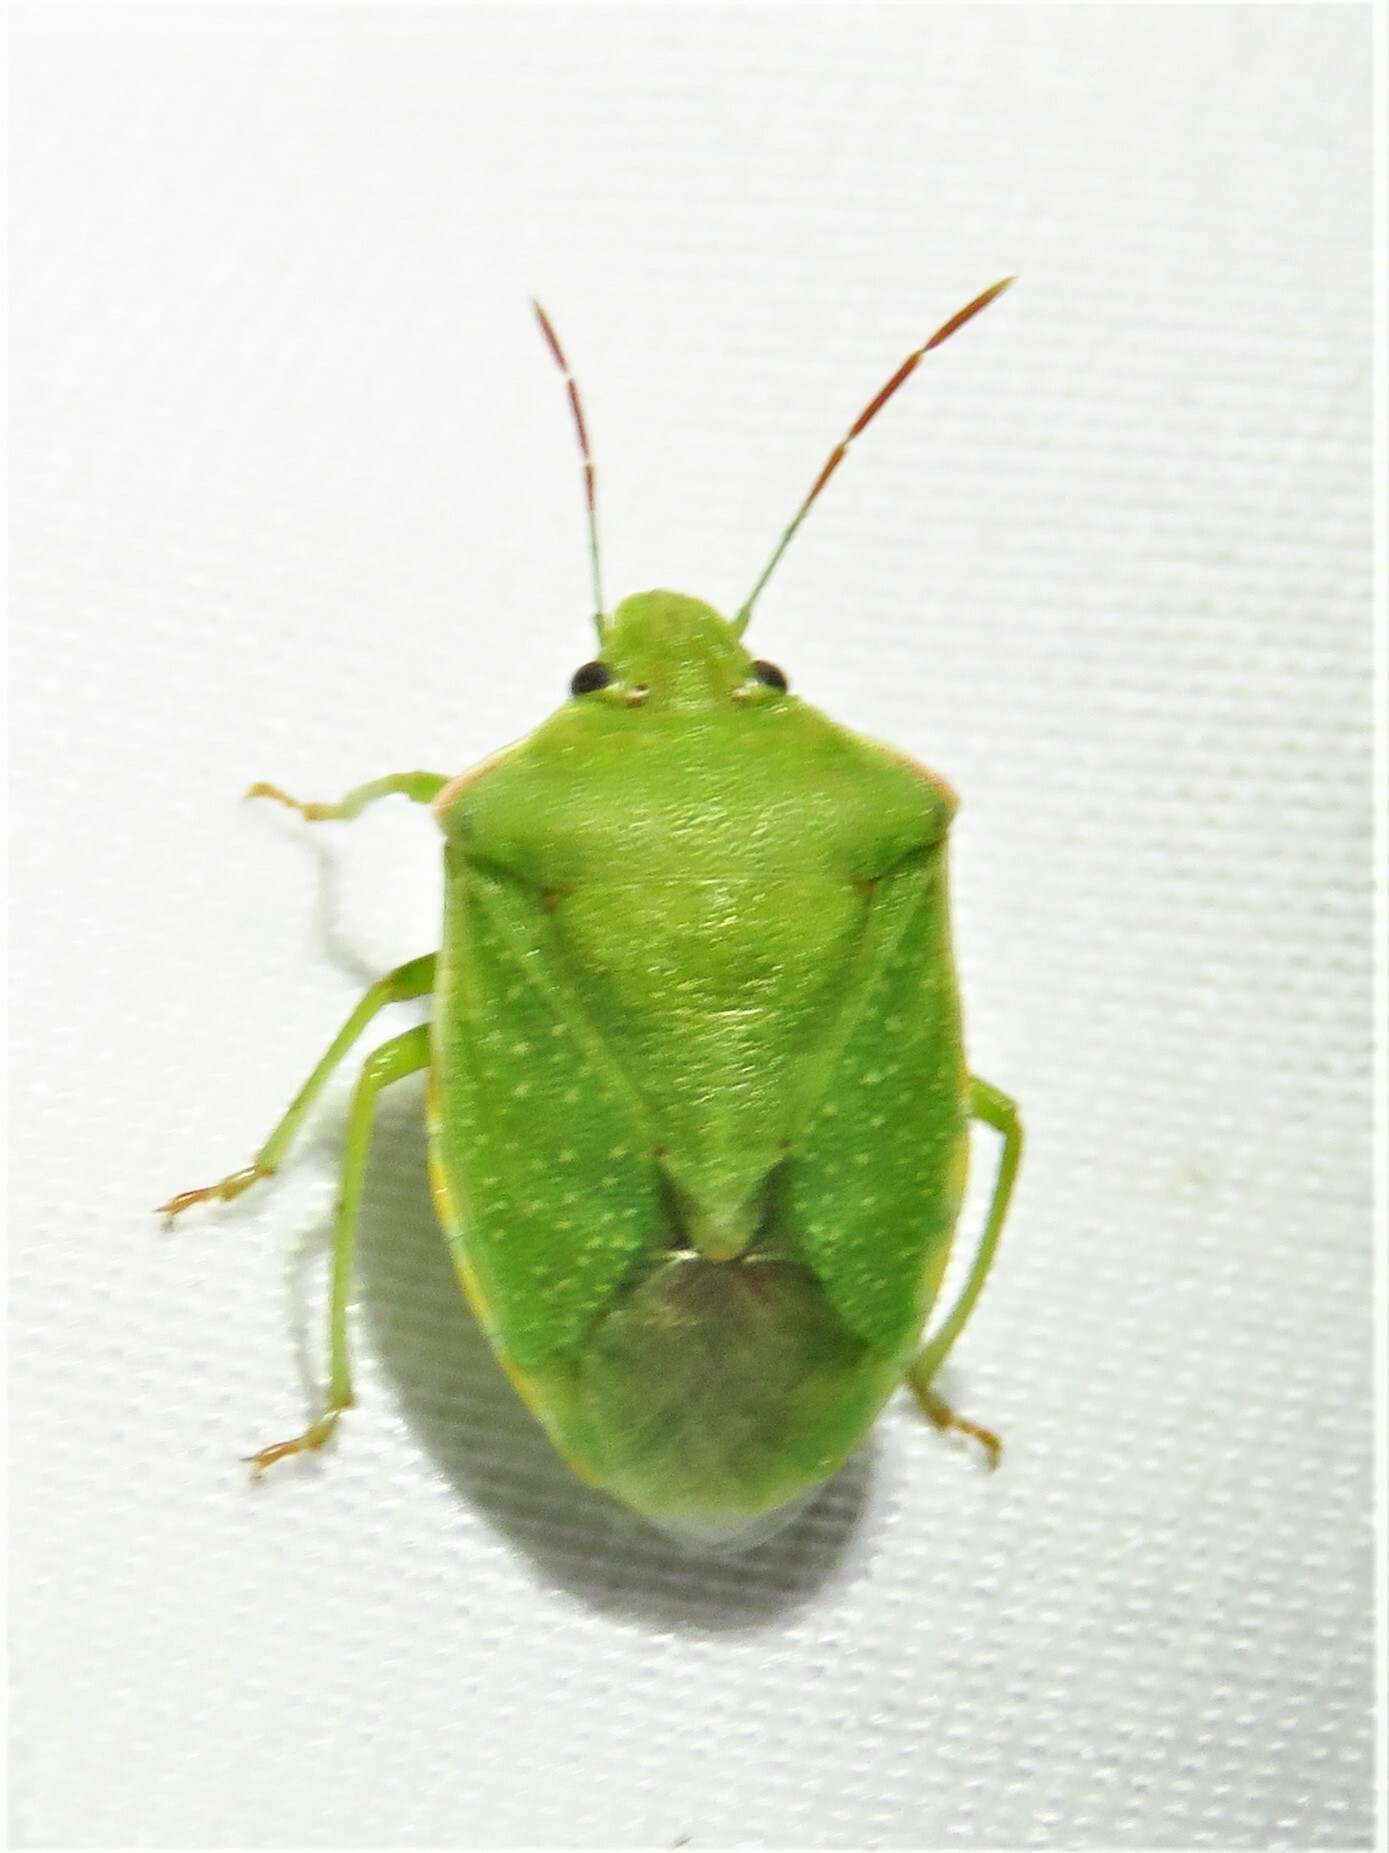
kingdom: Animalia
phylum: Arthropoda
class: Insecta
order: Hemiptera
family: Pentatomidae
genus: Thyanta
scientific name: Thyanta custator
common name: Stink bug
